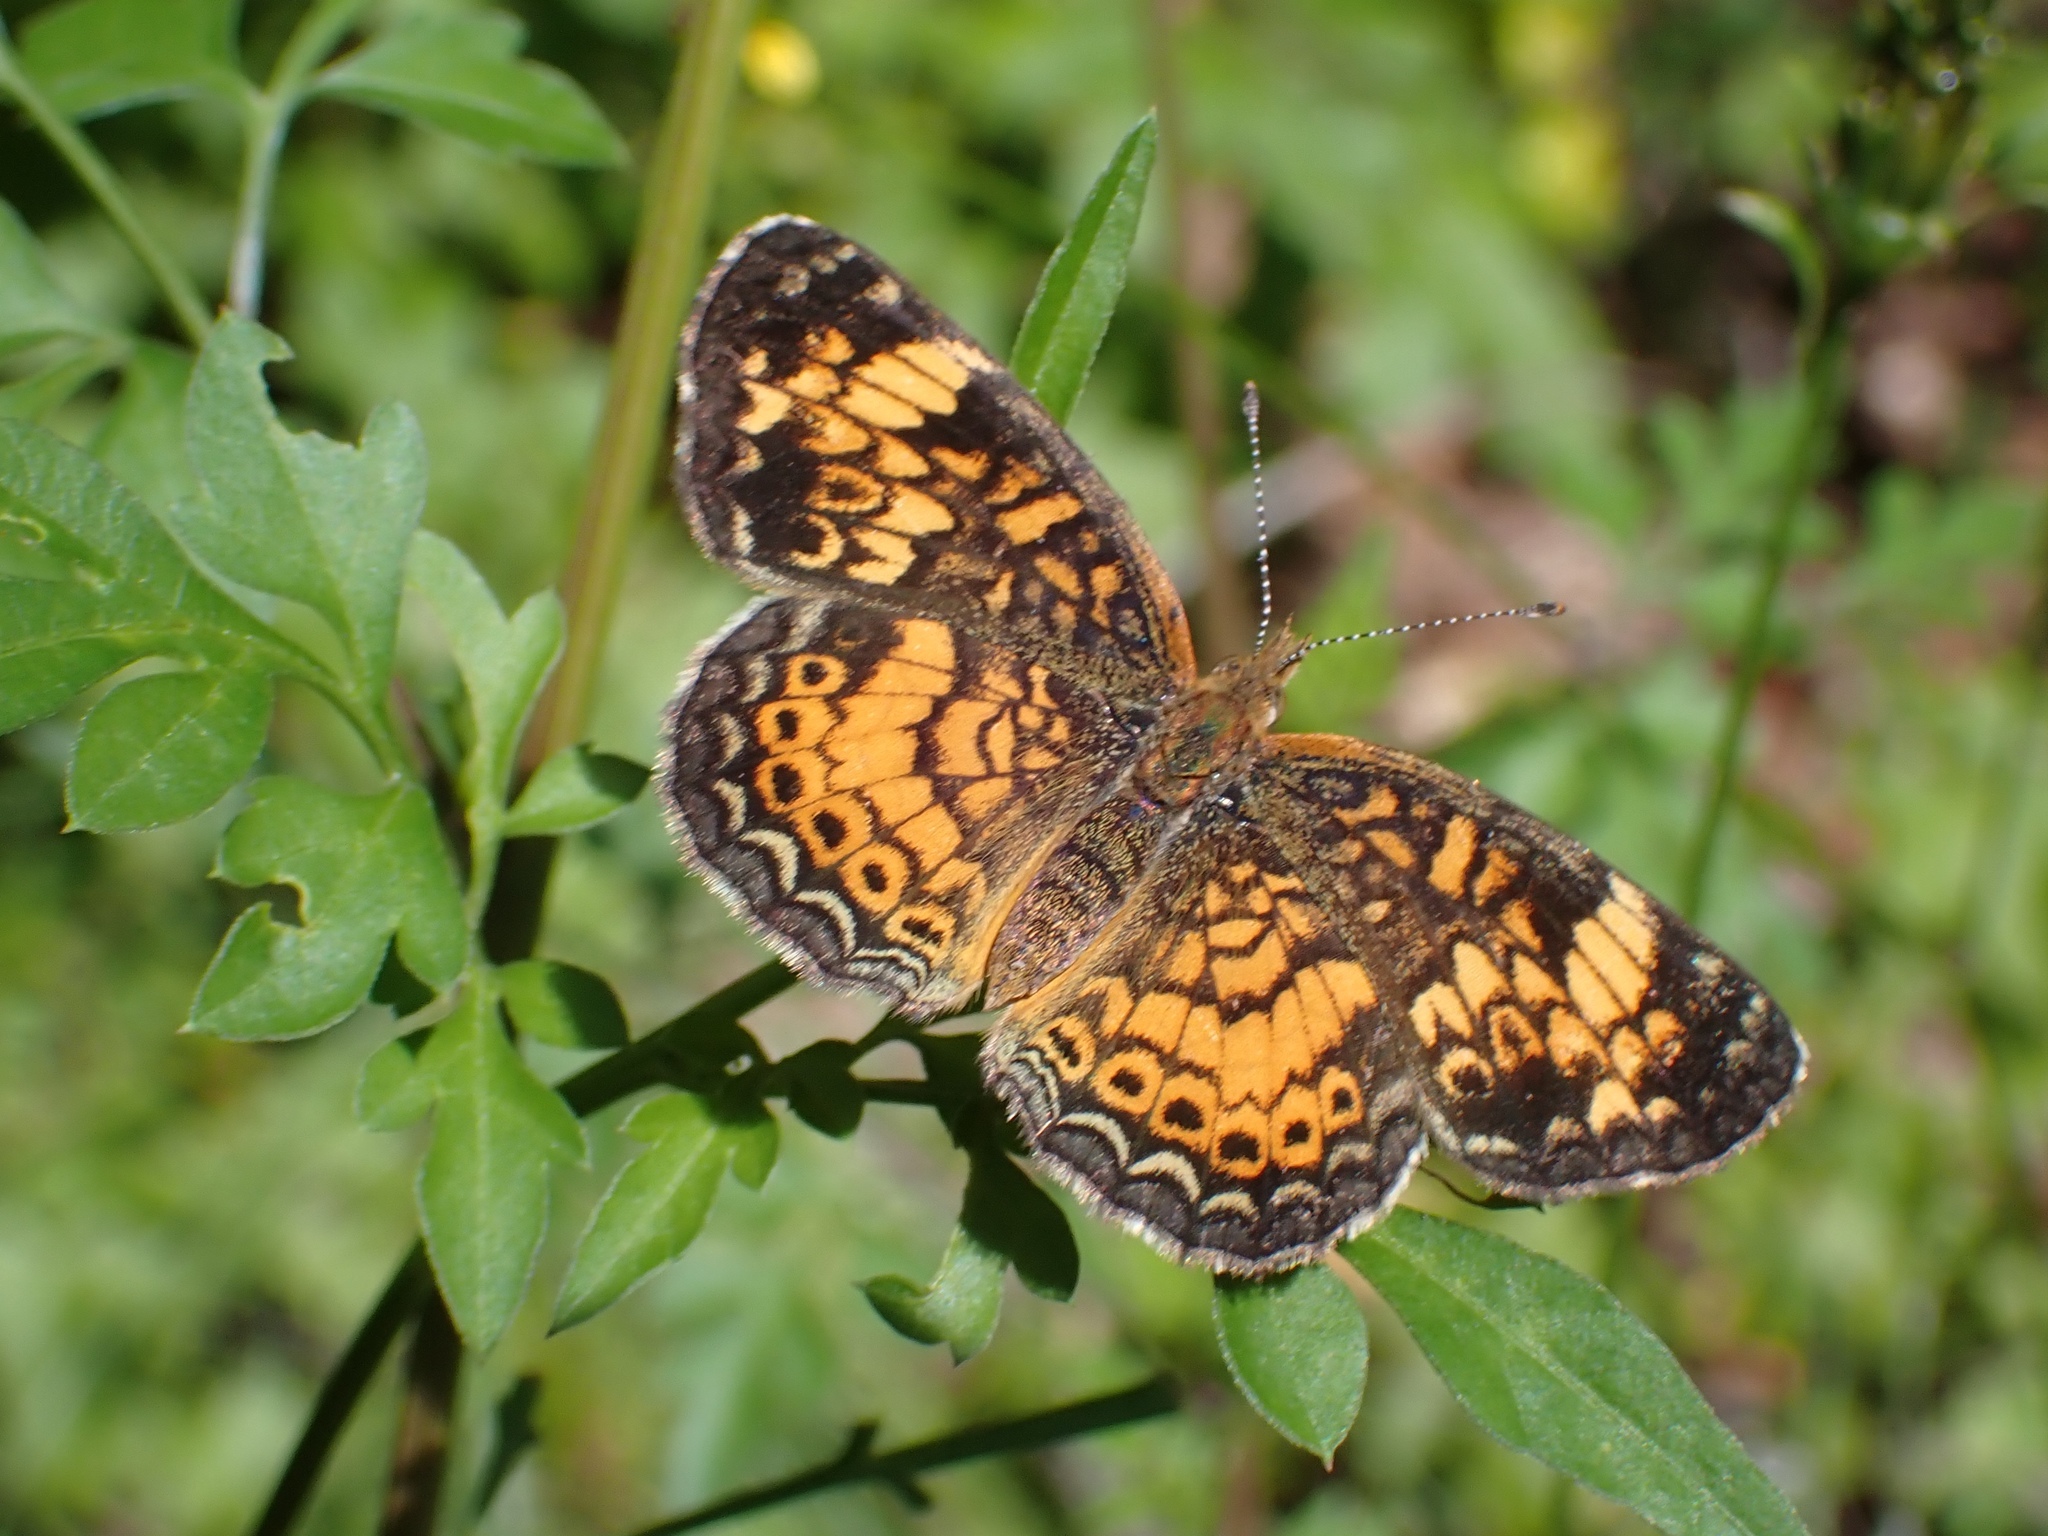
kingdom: Animalia
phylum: Arthropoda
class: Insecta
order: Lepidoptera
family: Nymphalidae
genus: Phyciodes
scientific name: Phyciodes tharos
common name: Pearl crescent
